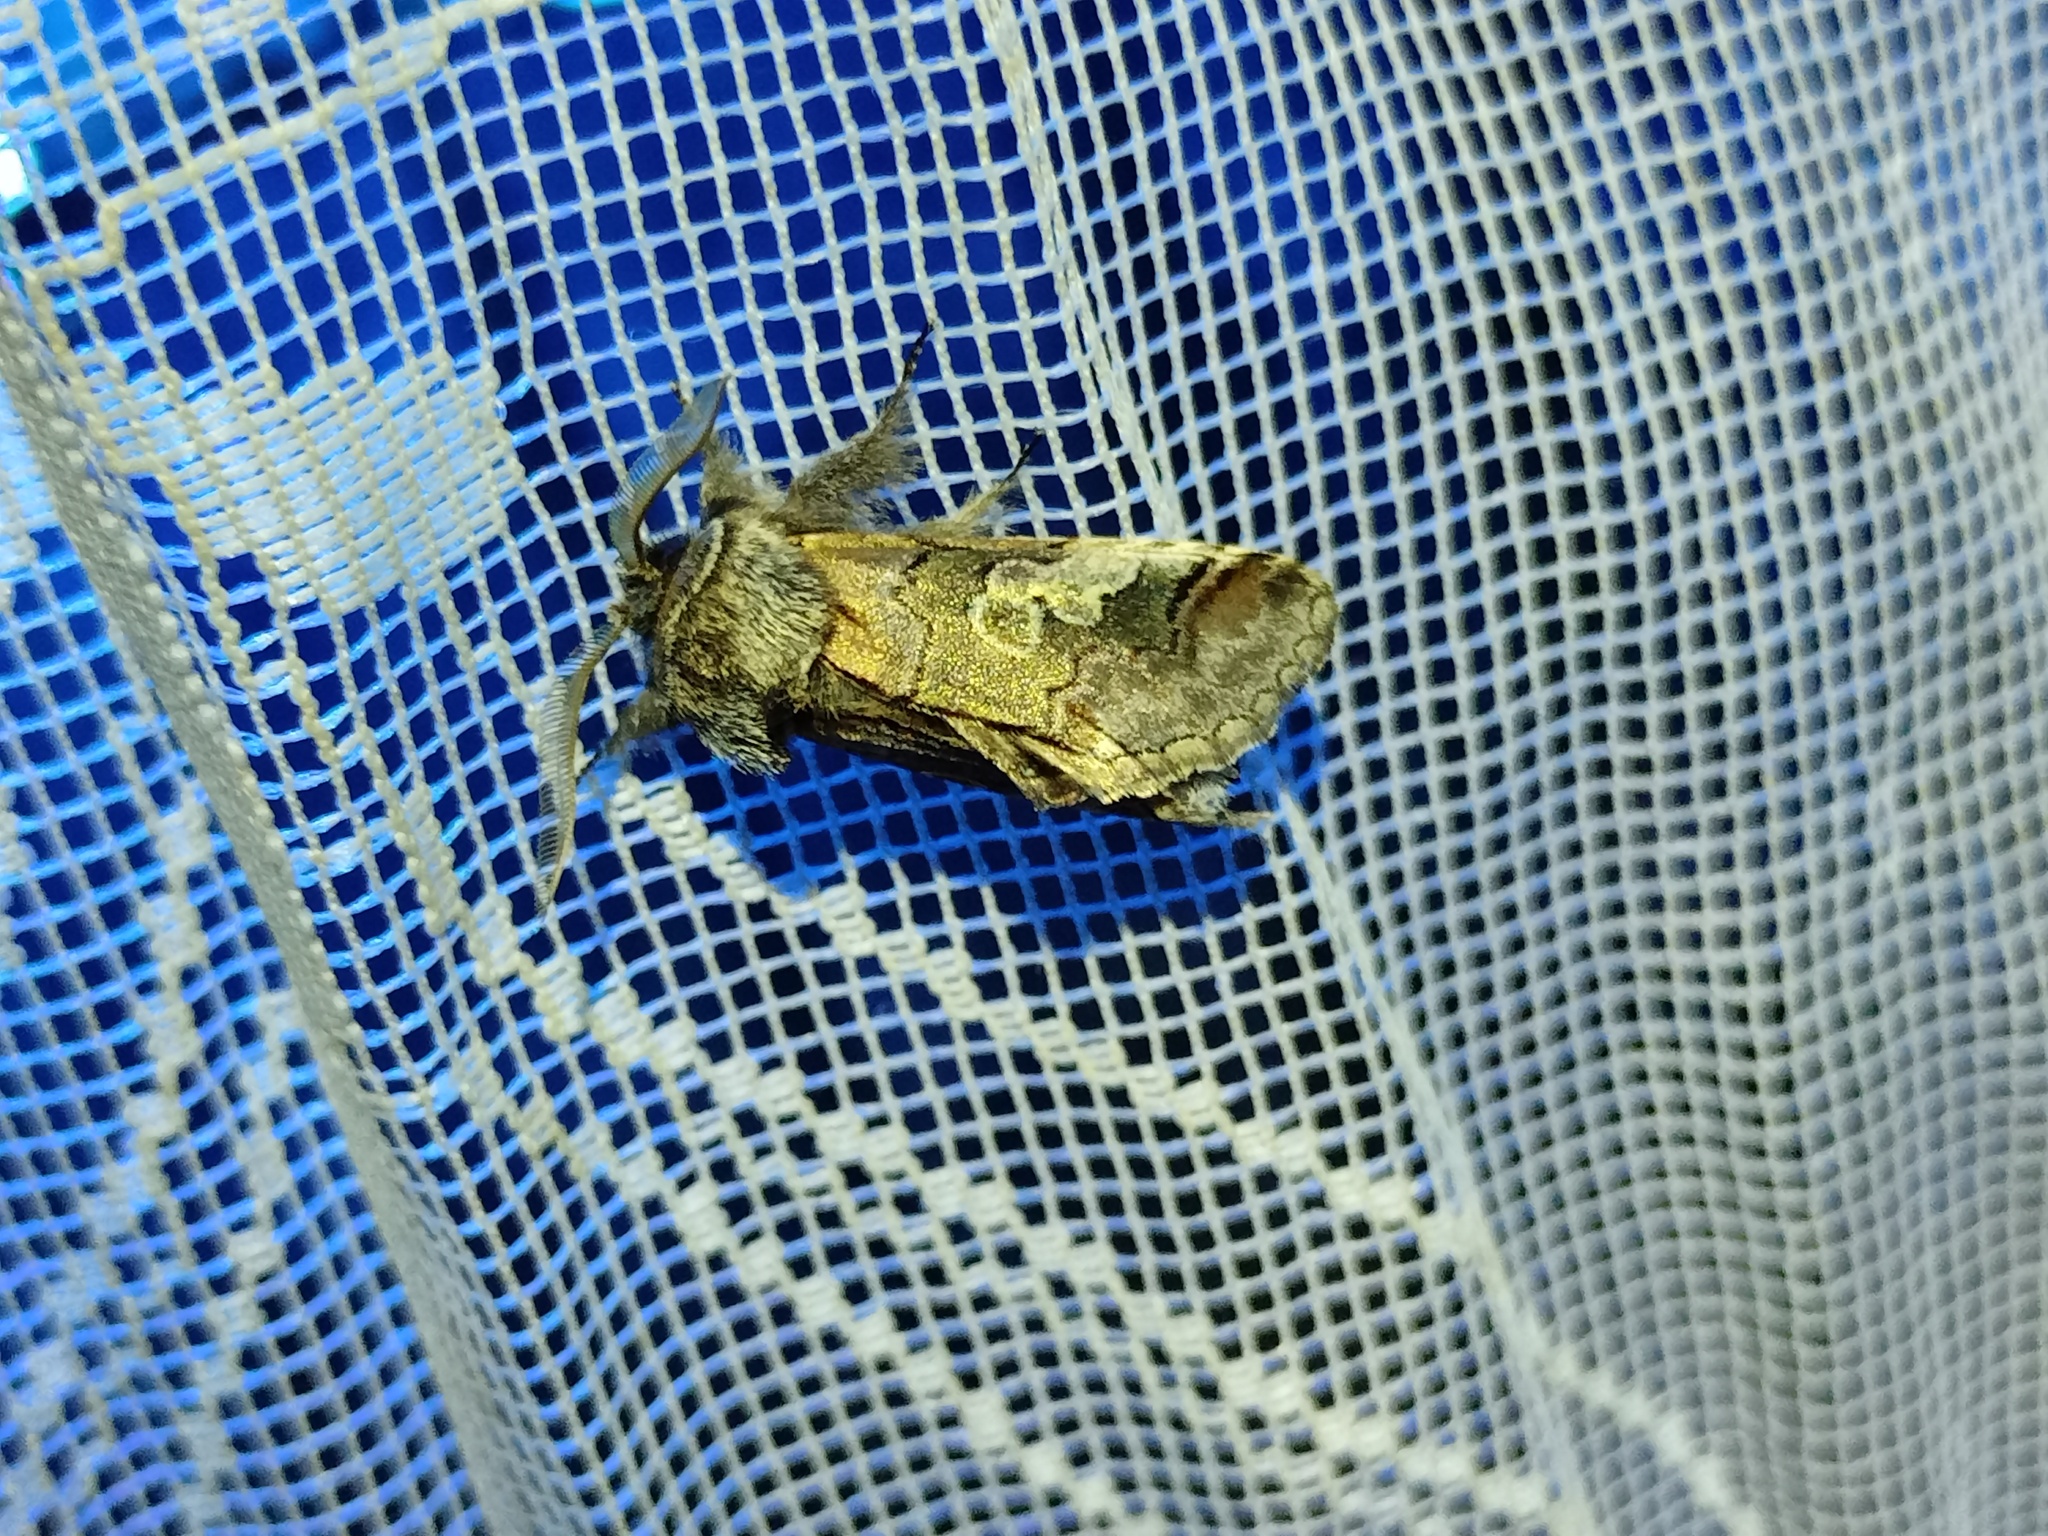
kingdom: Animalia
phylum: Arthropoda
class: Insecta
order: Lepidoptera
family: Noctuidae
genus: Diloba
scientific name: Diloba caeruleocephala
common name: Figure of eight
